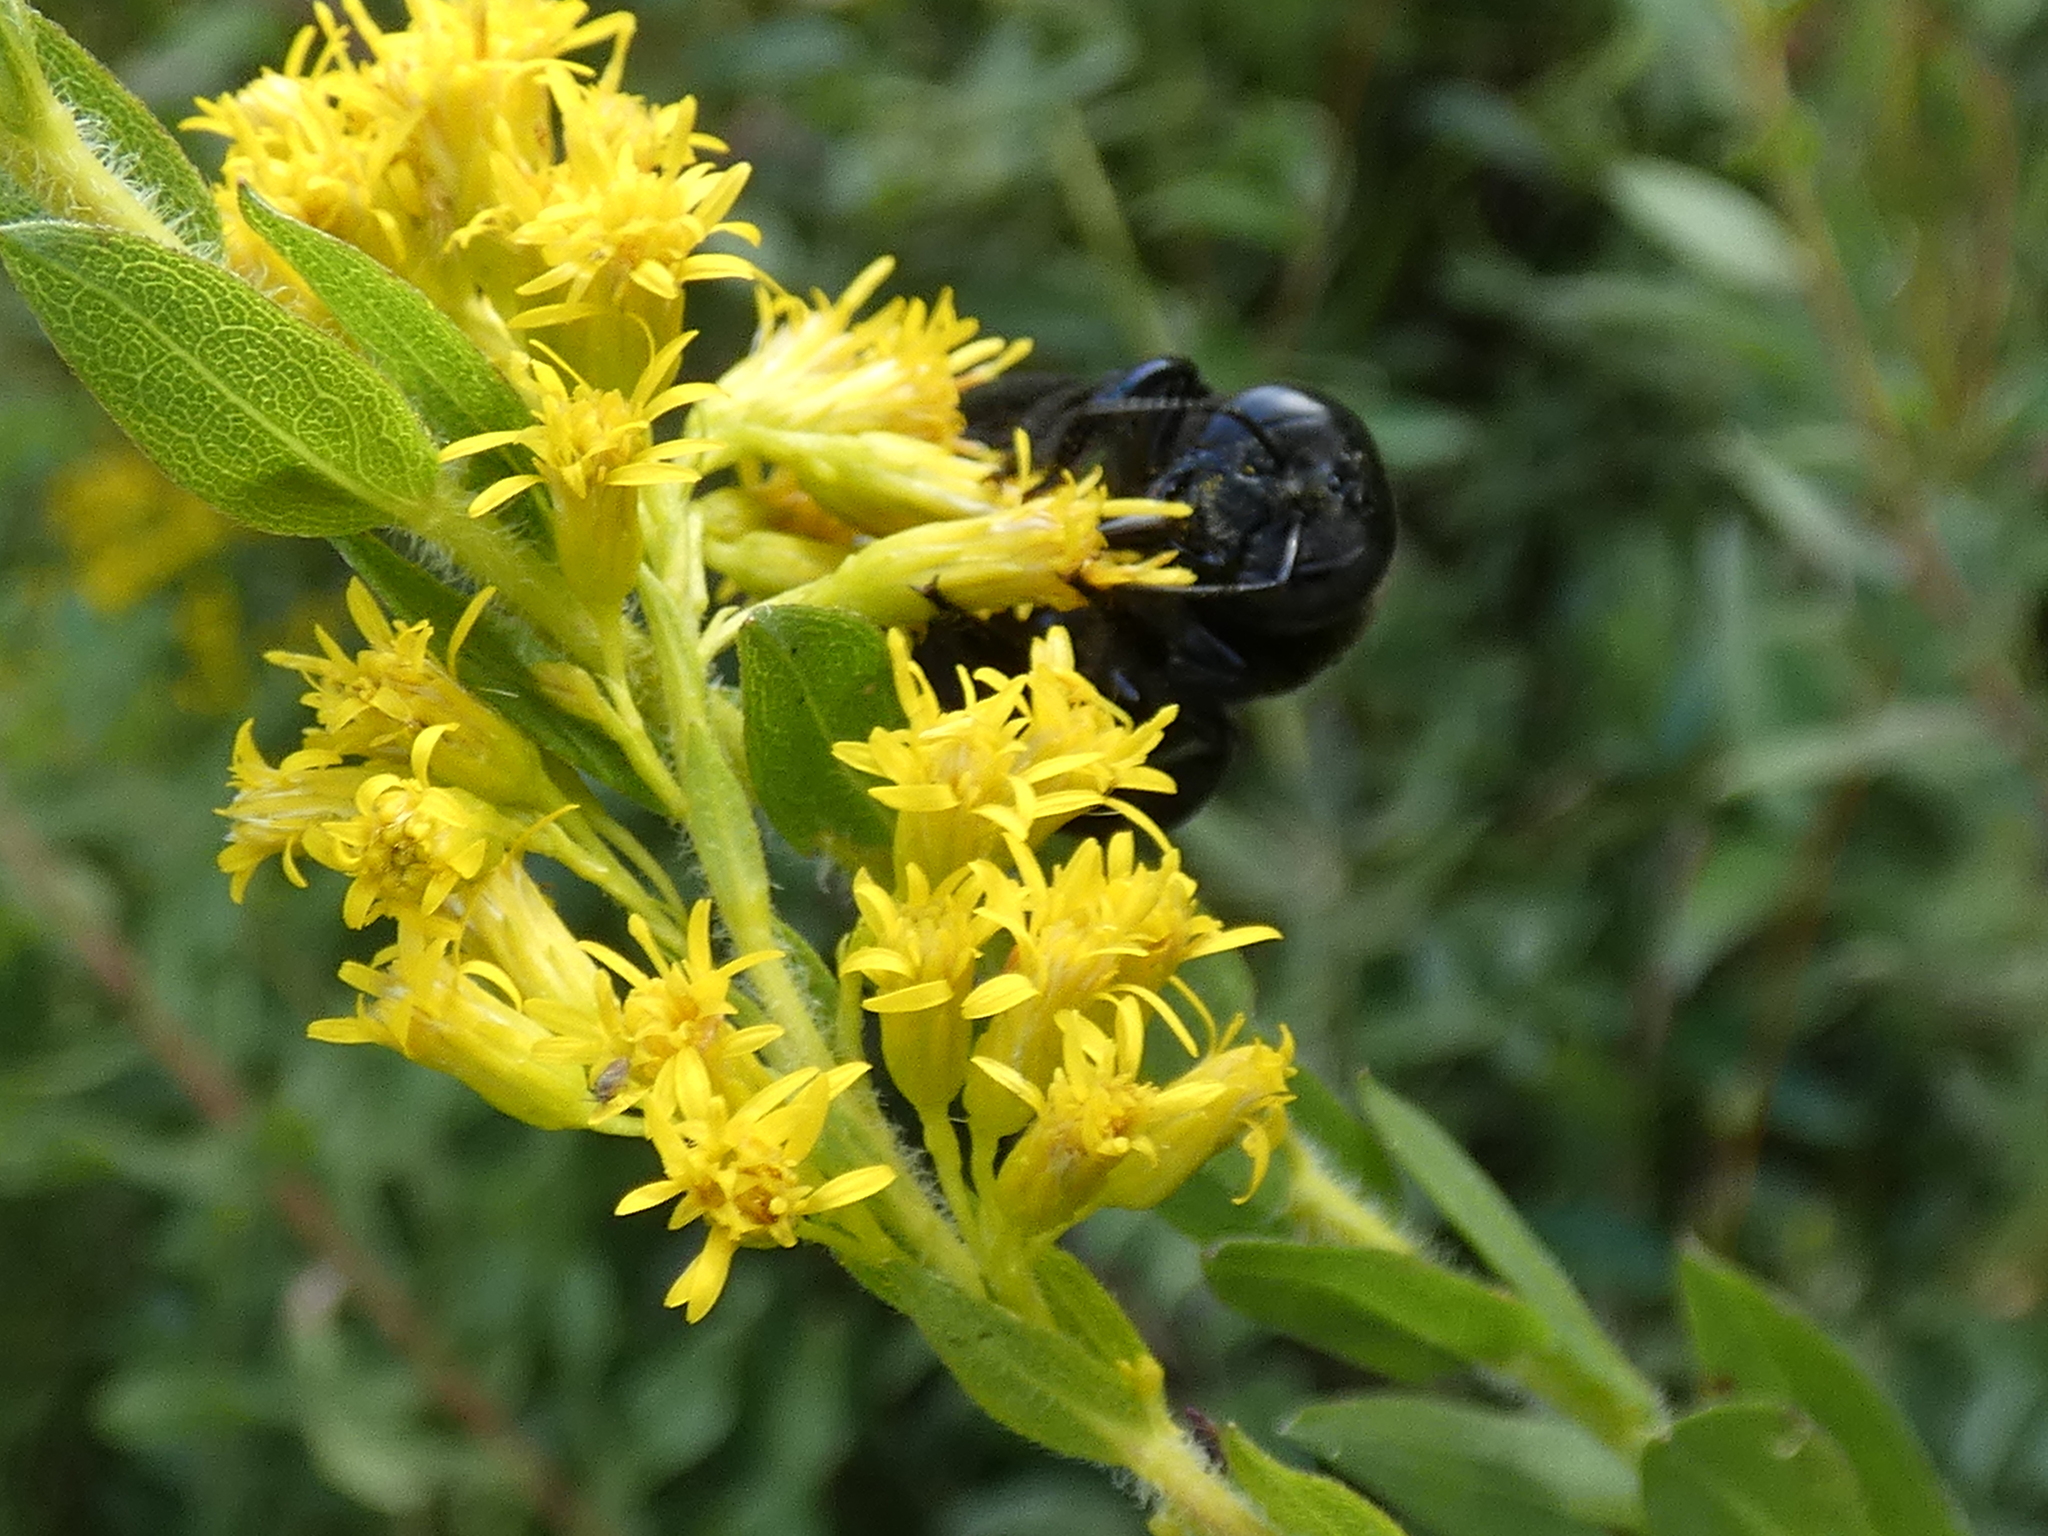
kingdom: Animalia
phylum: Arthropoda
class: Insecta
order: Hymenoptera
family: Apidae
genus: Xylocopa
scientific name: Xylocopa micans
